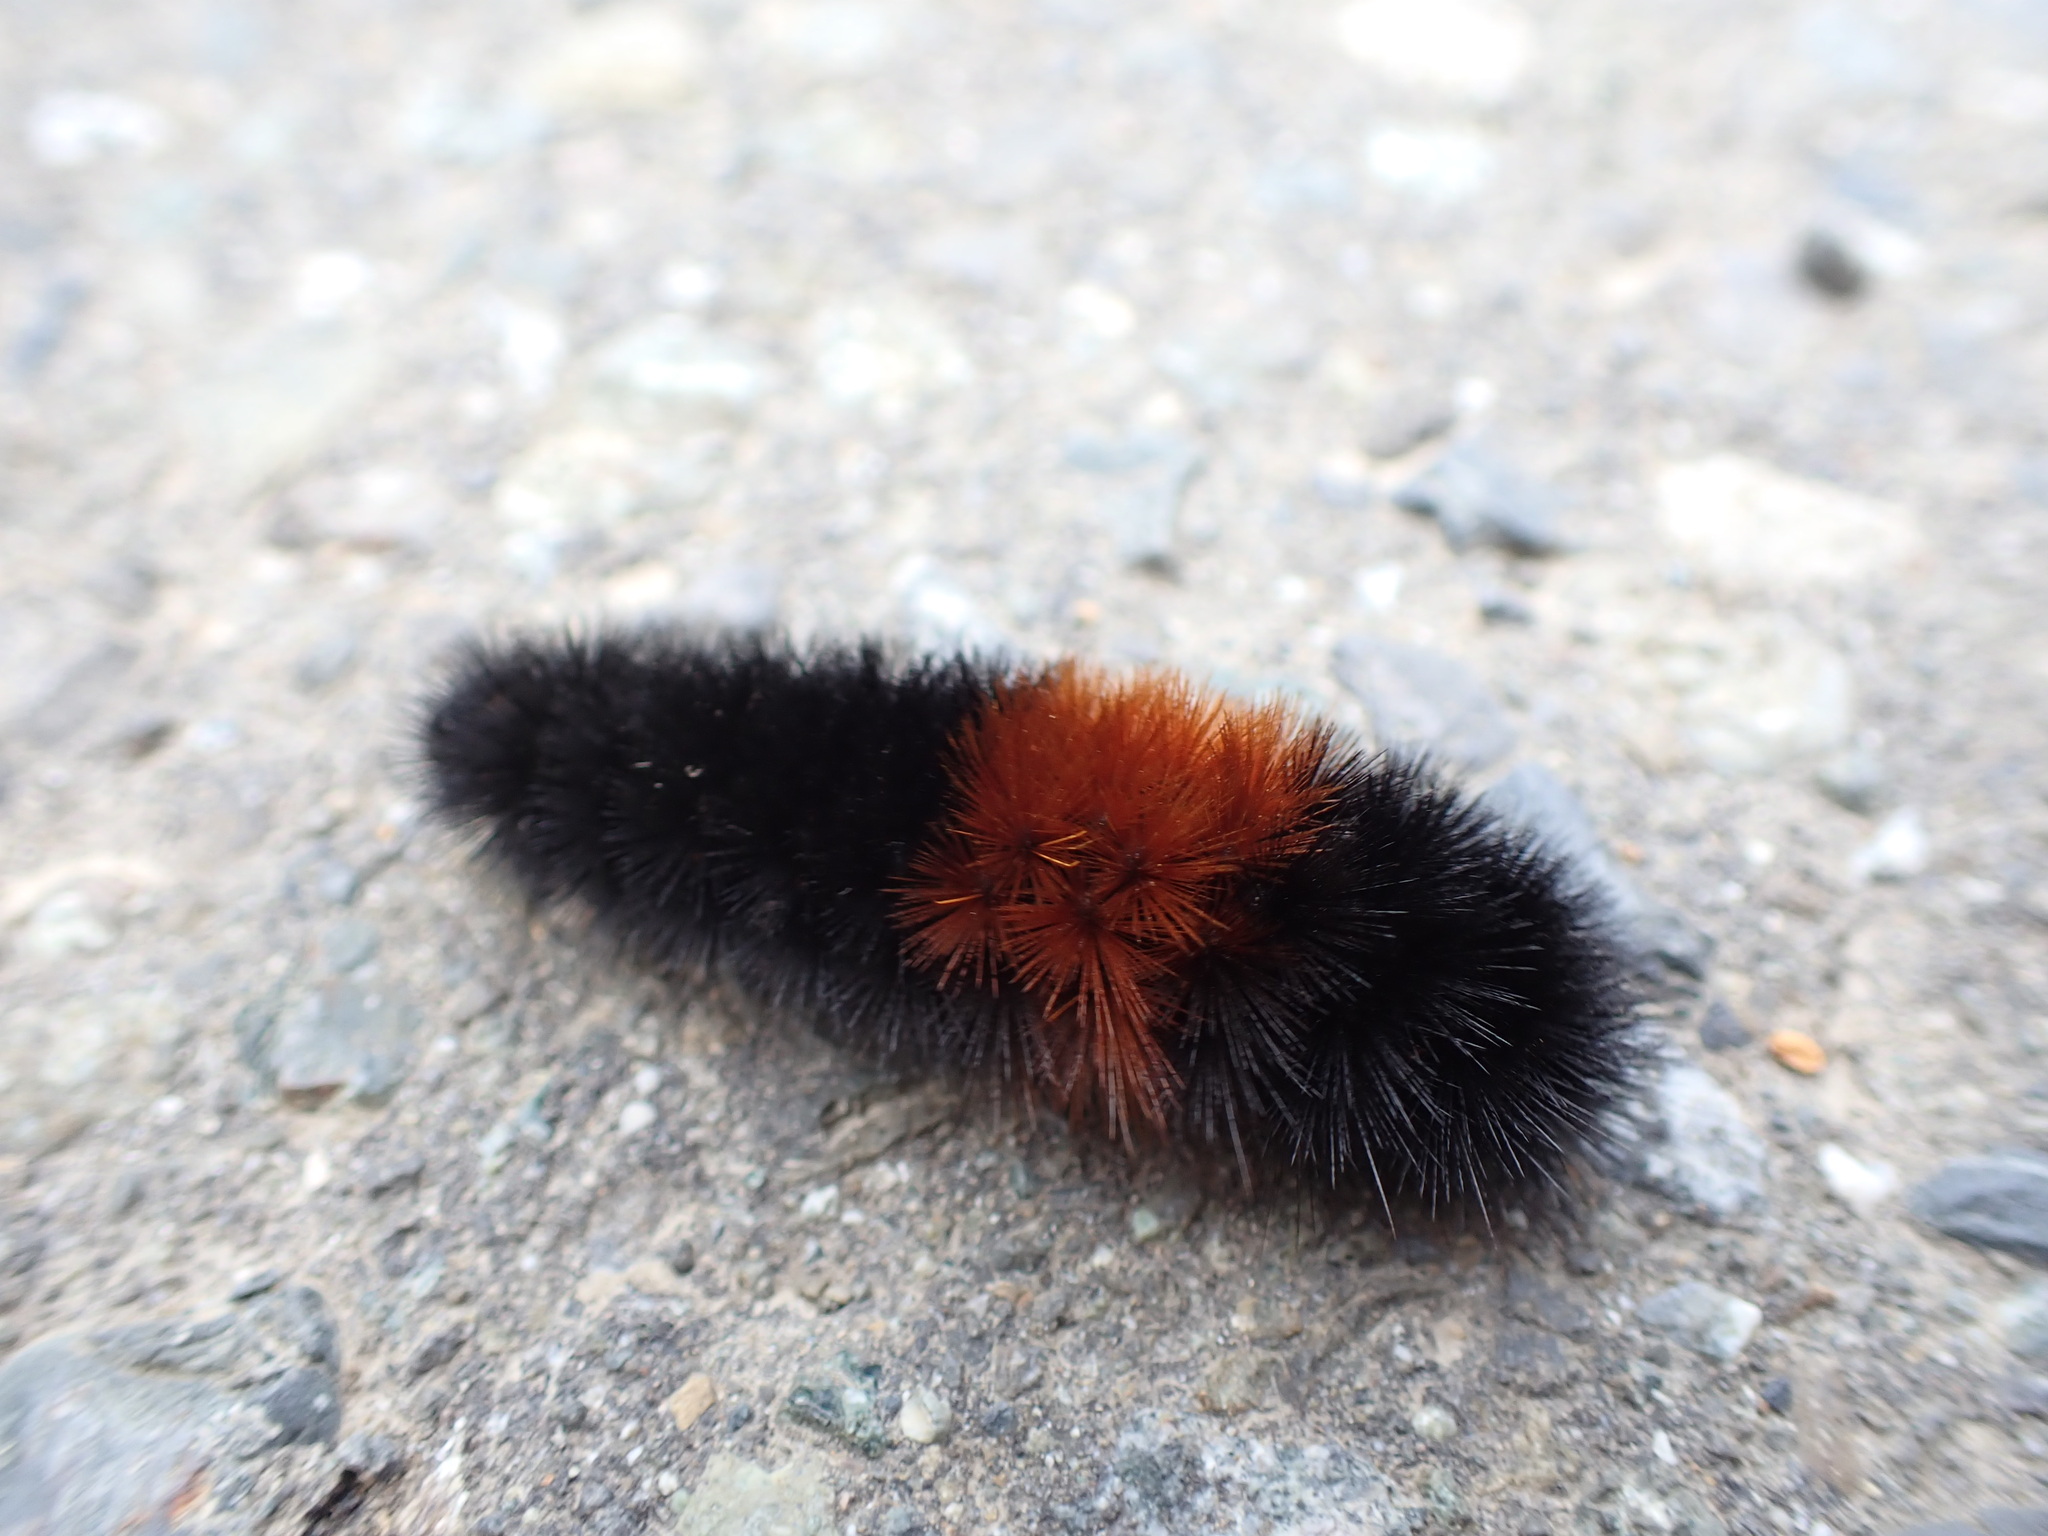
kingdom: Animalia
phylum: Arthropoda
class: Insecta
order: Lepidoptera
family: Erebidae
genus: Pyrrharctia
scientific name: Pyrrharctia isabella
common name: Isabella tiger moth
